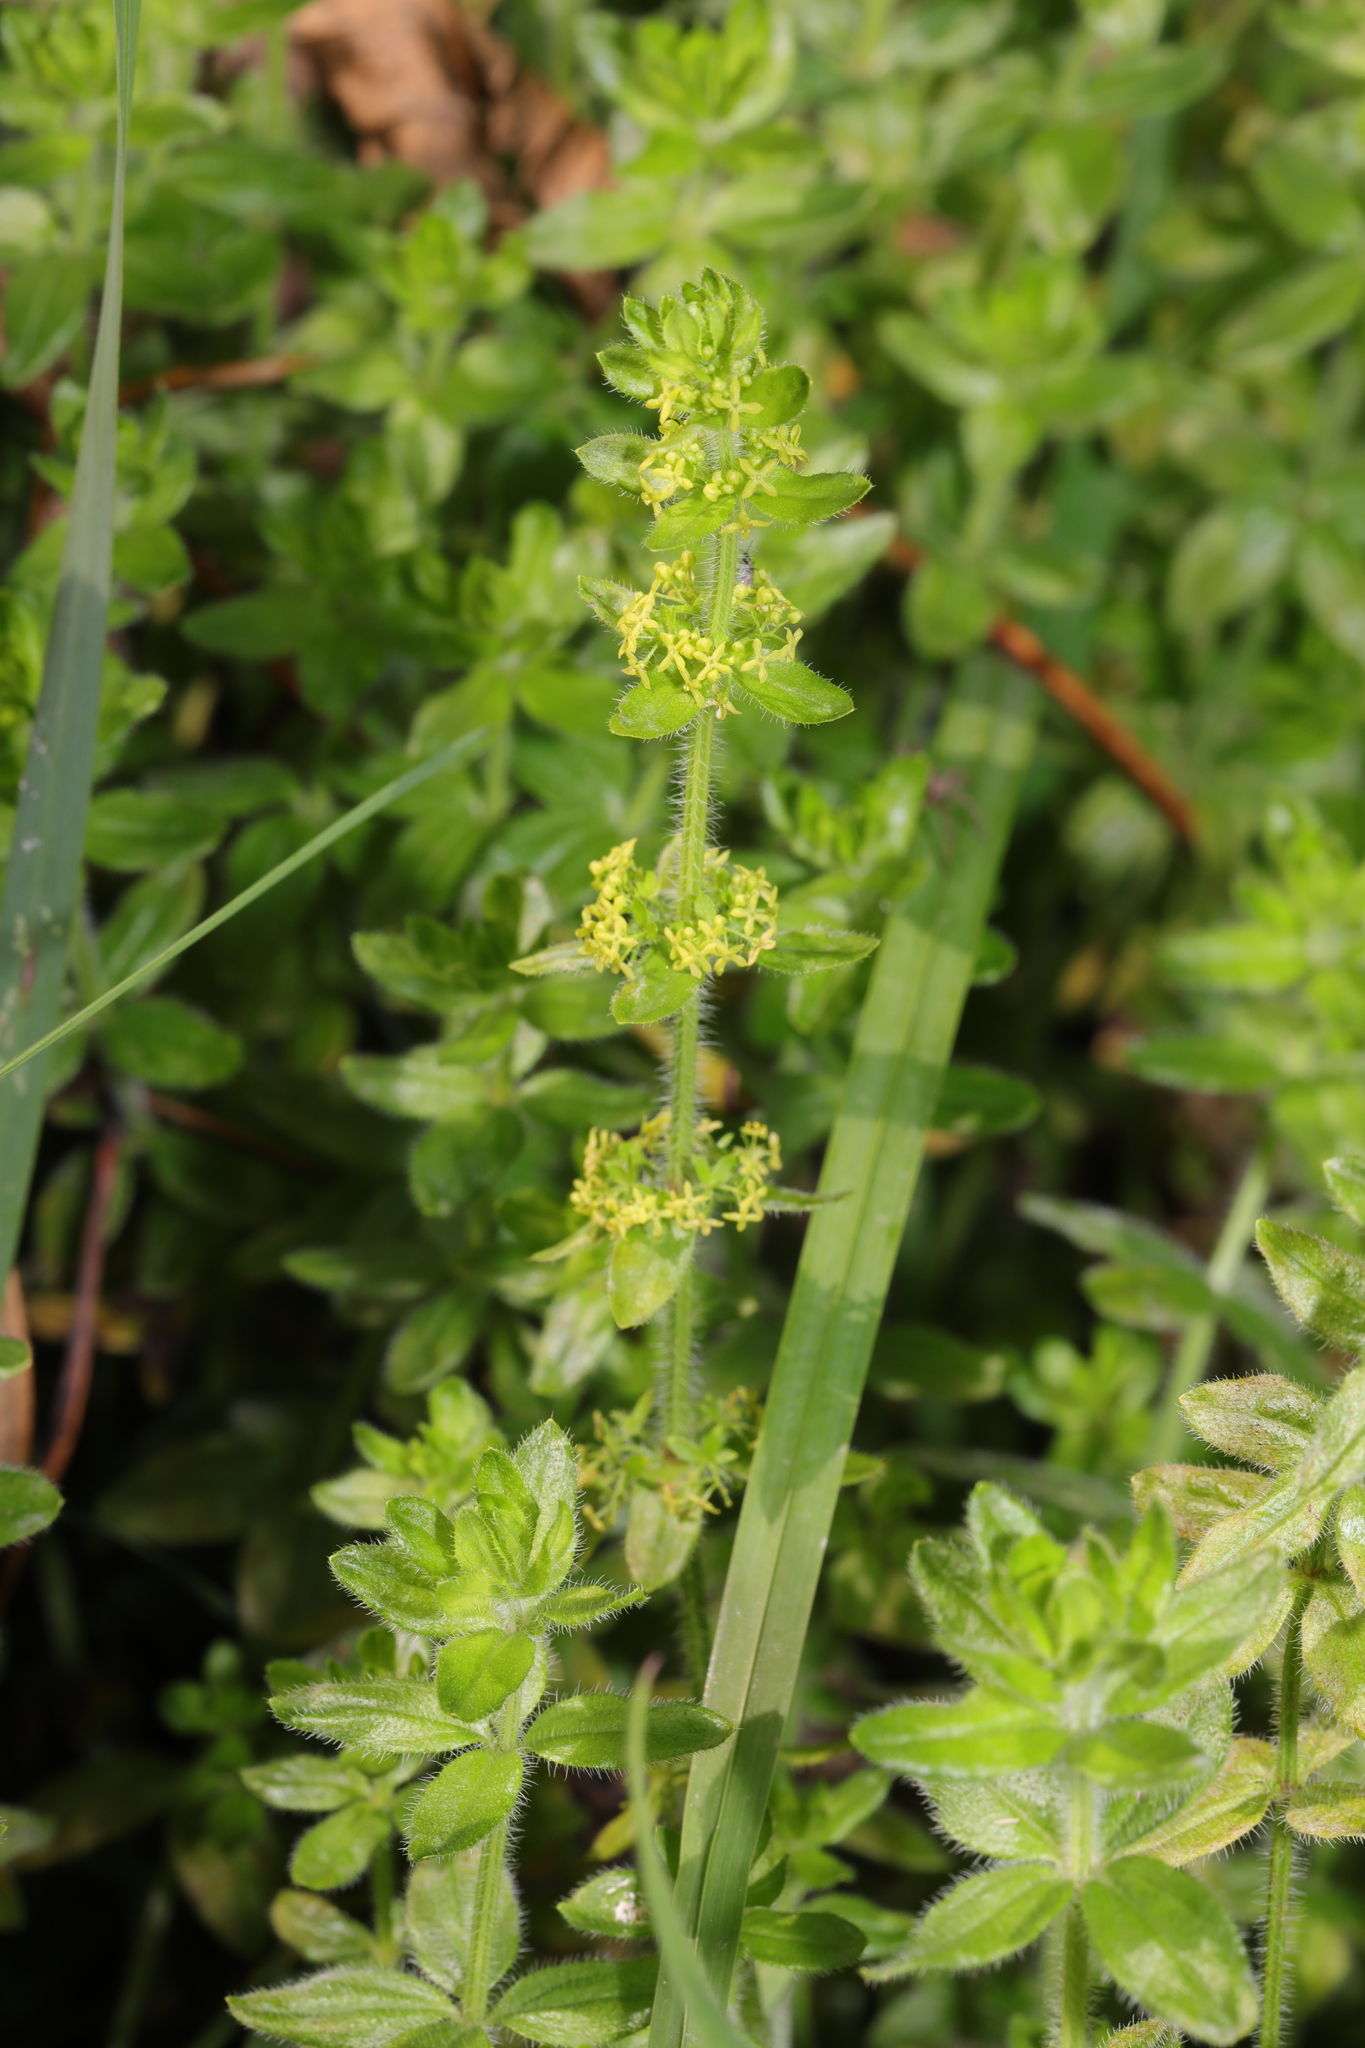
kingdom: Plantae
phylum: Tracheophyta
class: Magnoliopsida
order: Gentianales
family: Rubiaceae
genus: Cruciata
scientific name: Cruciata laevipes
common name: Crosswort
